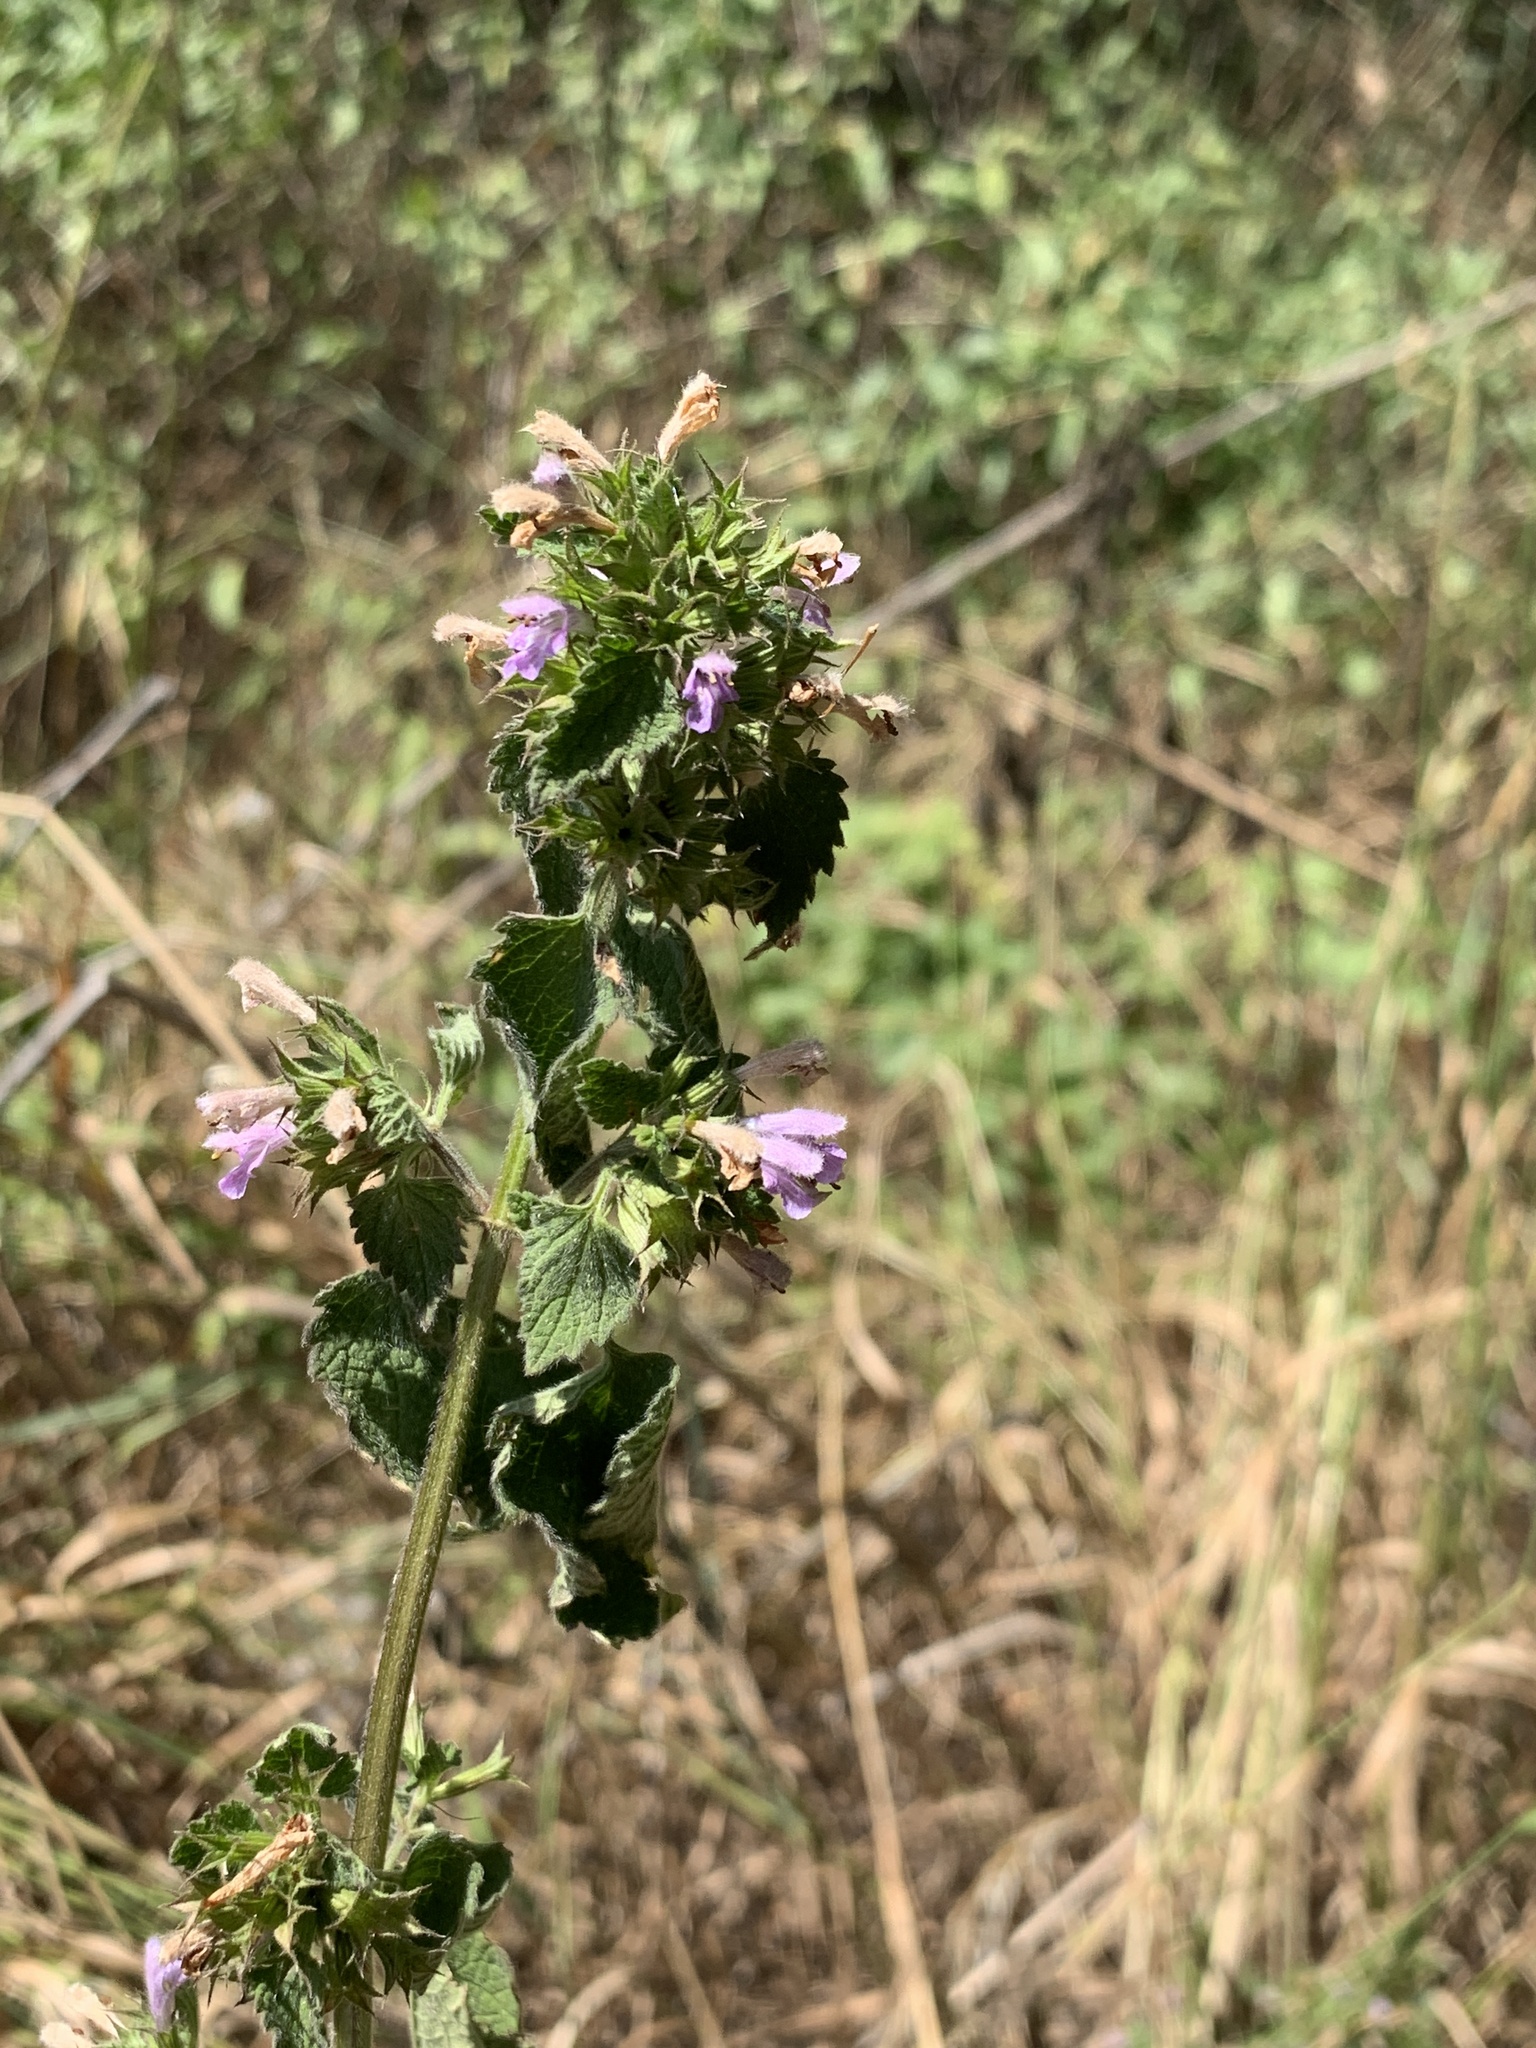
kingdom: Plantae
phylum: Tracheophyta
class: Magnoliopsida
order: Lamiales
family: Lamiaceae
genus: Ballota
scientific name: Ballota nigra
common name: Black horehound
